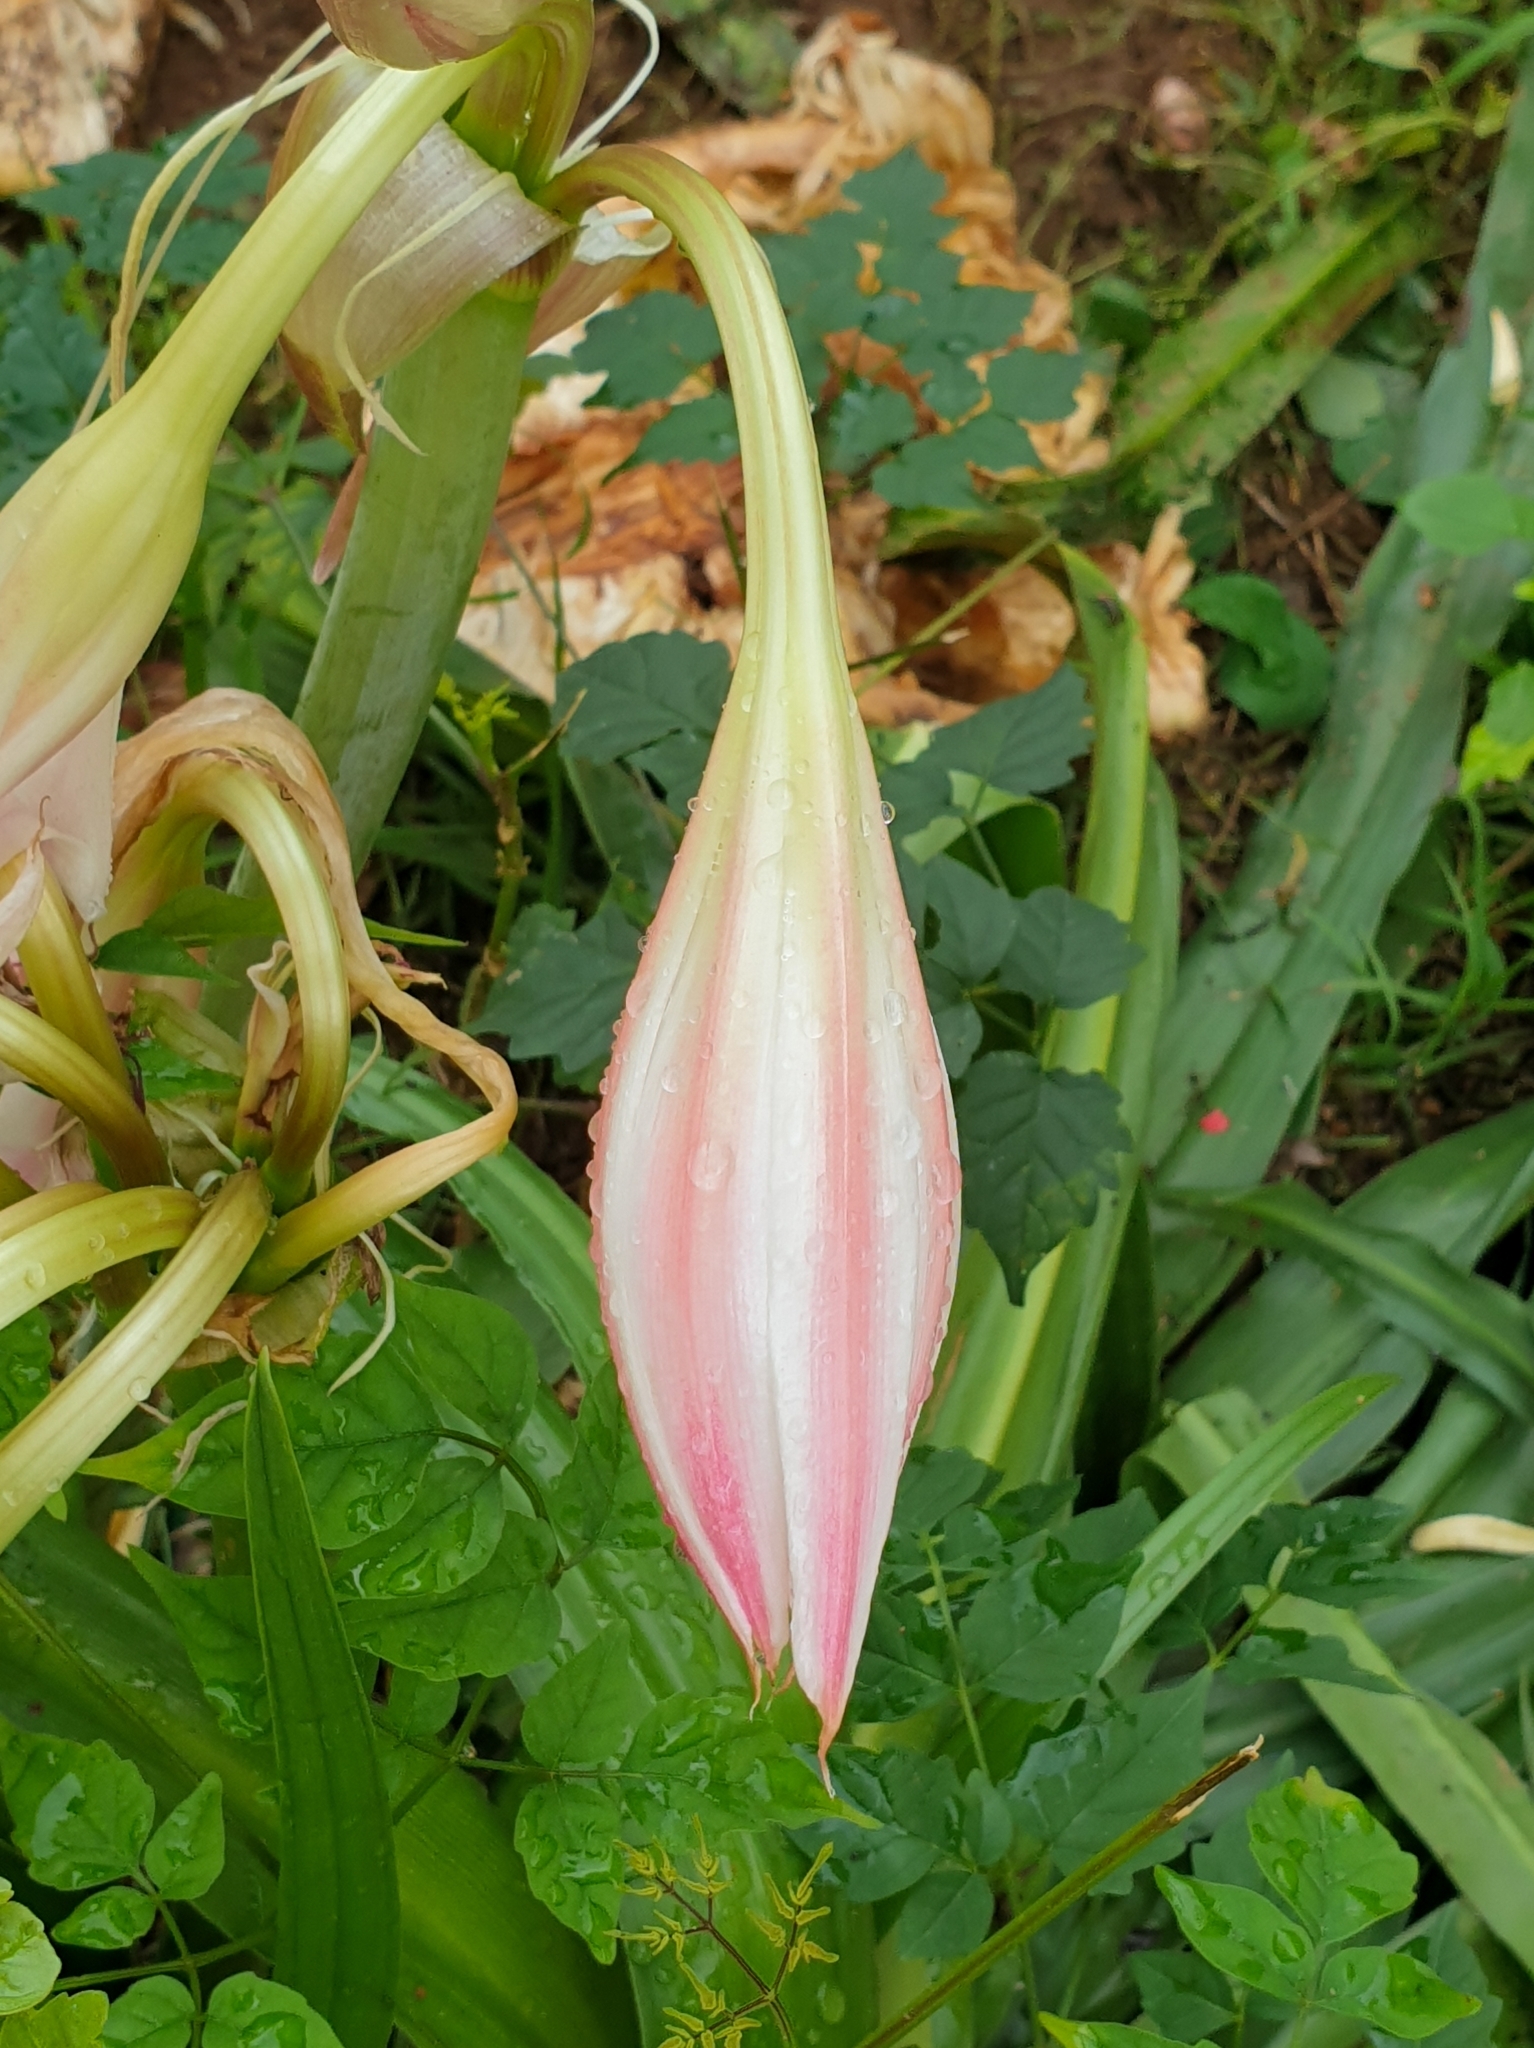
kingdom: Plantae
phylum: Tracheophyta
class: Liliopsida
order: Asparagales
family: Amaryllidaceae
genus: Crinum
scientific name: Crinum zeylanicum
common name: Ceylon swamplily
